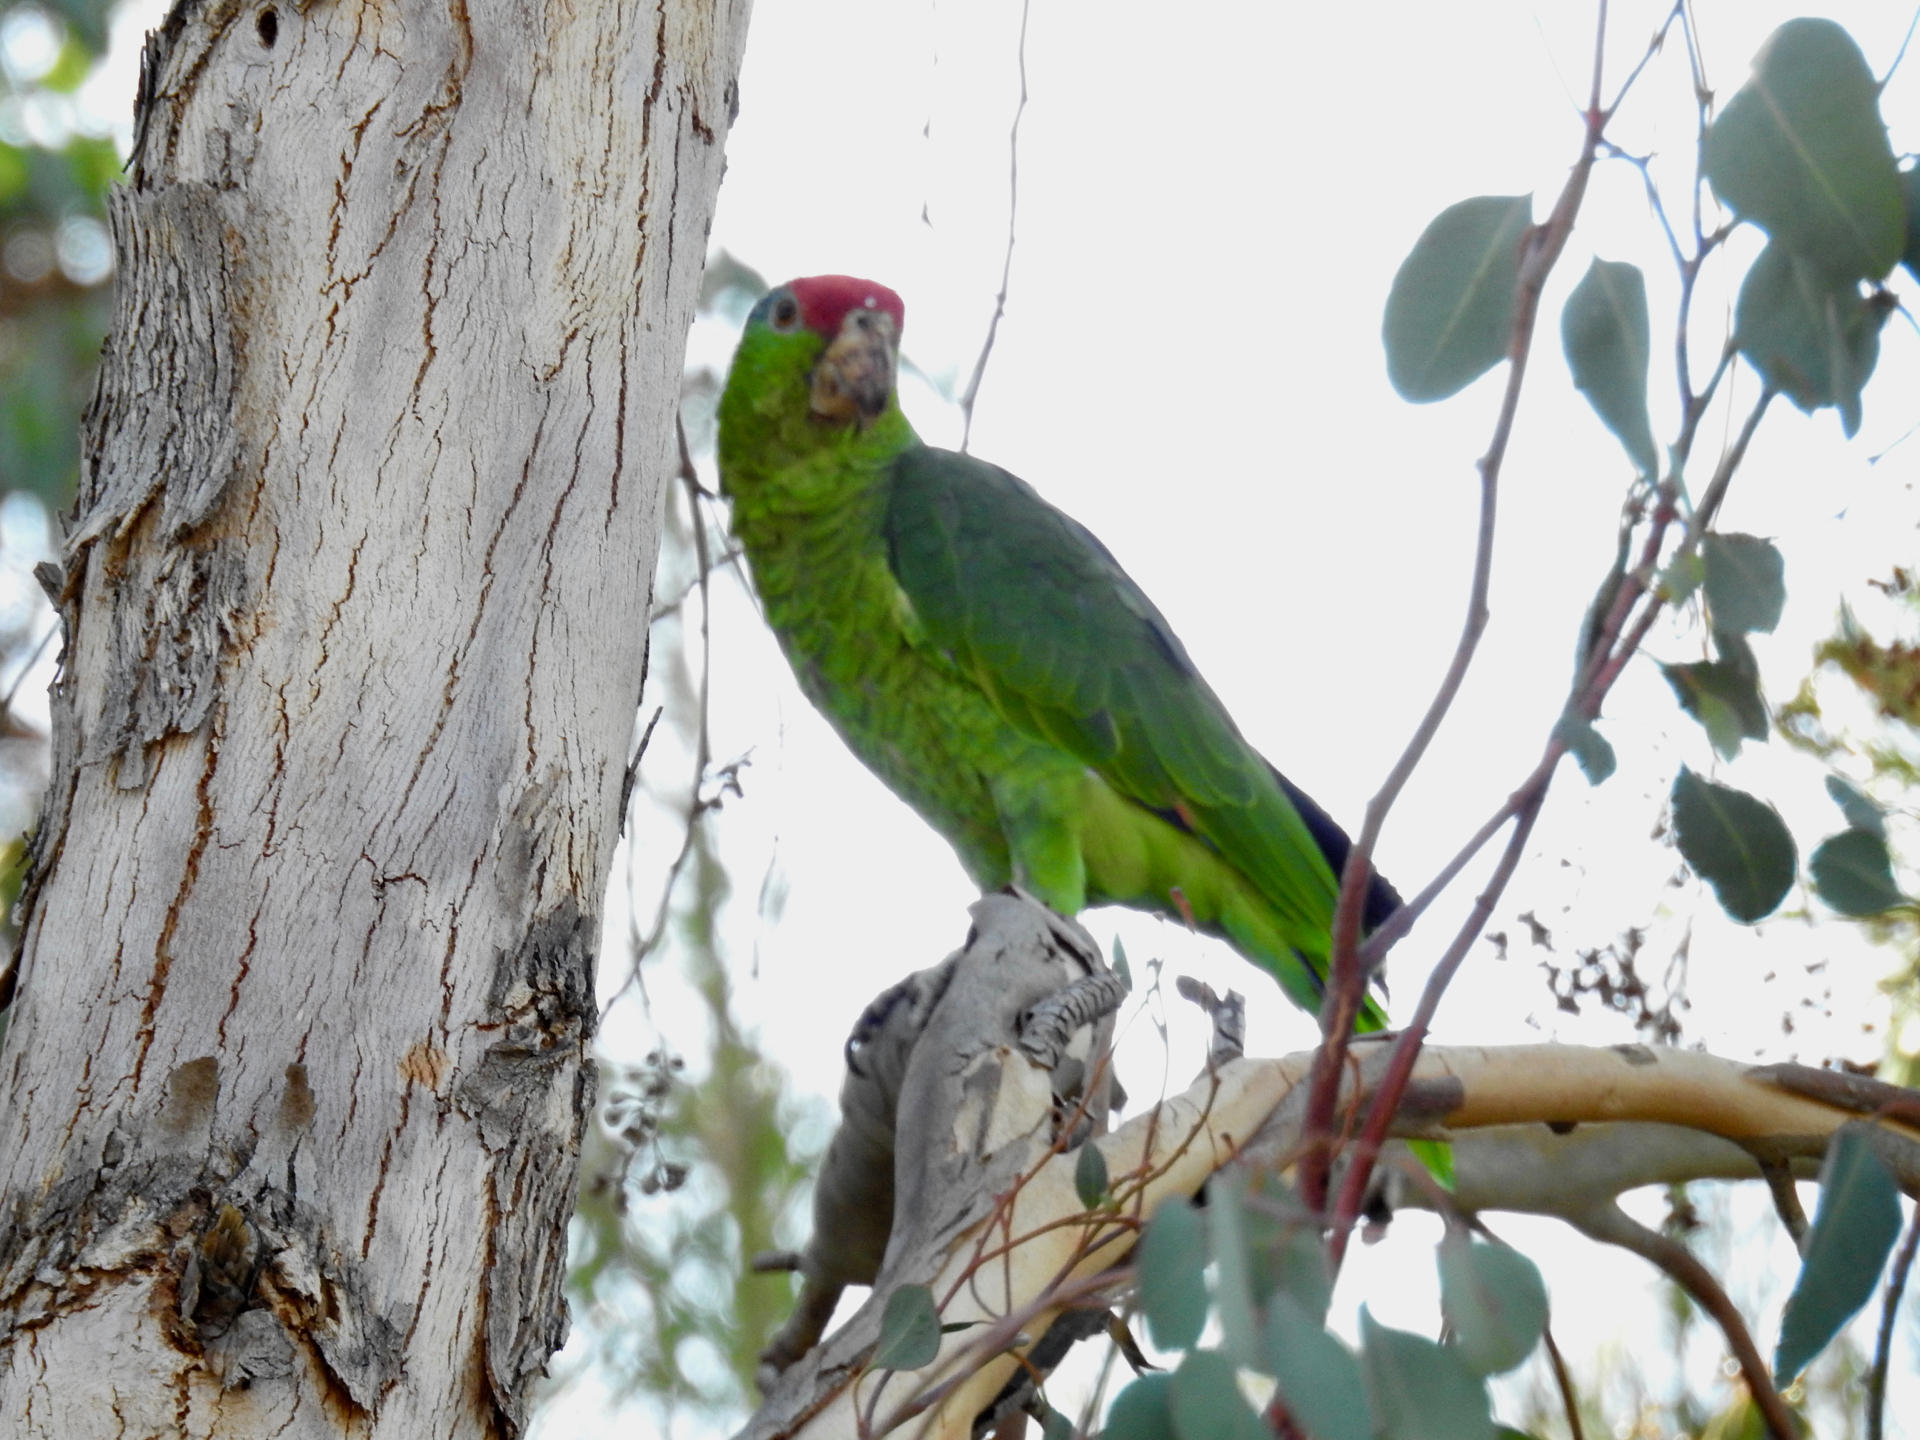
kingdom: Animalia
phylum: Chordata
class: Aves
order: Psittaciformes
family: Psittacidae
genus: Amazona
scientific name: Amazona viridigenalis
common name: Red-crowned amazon
